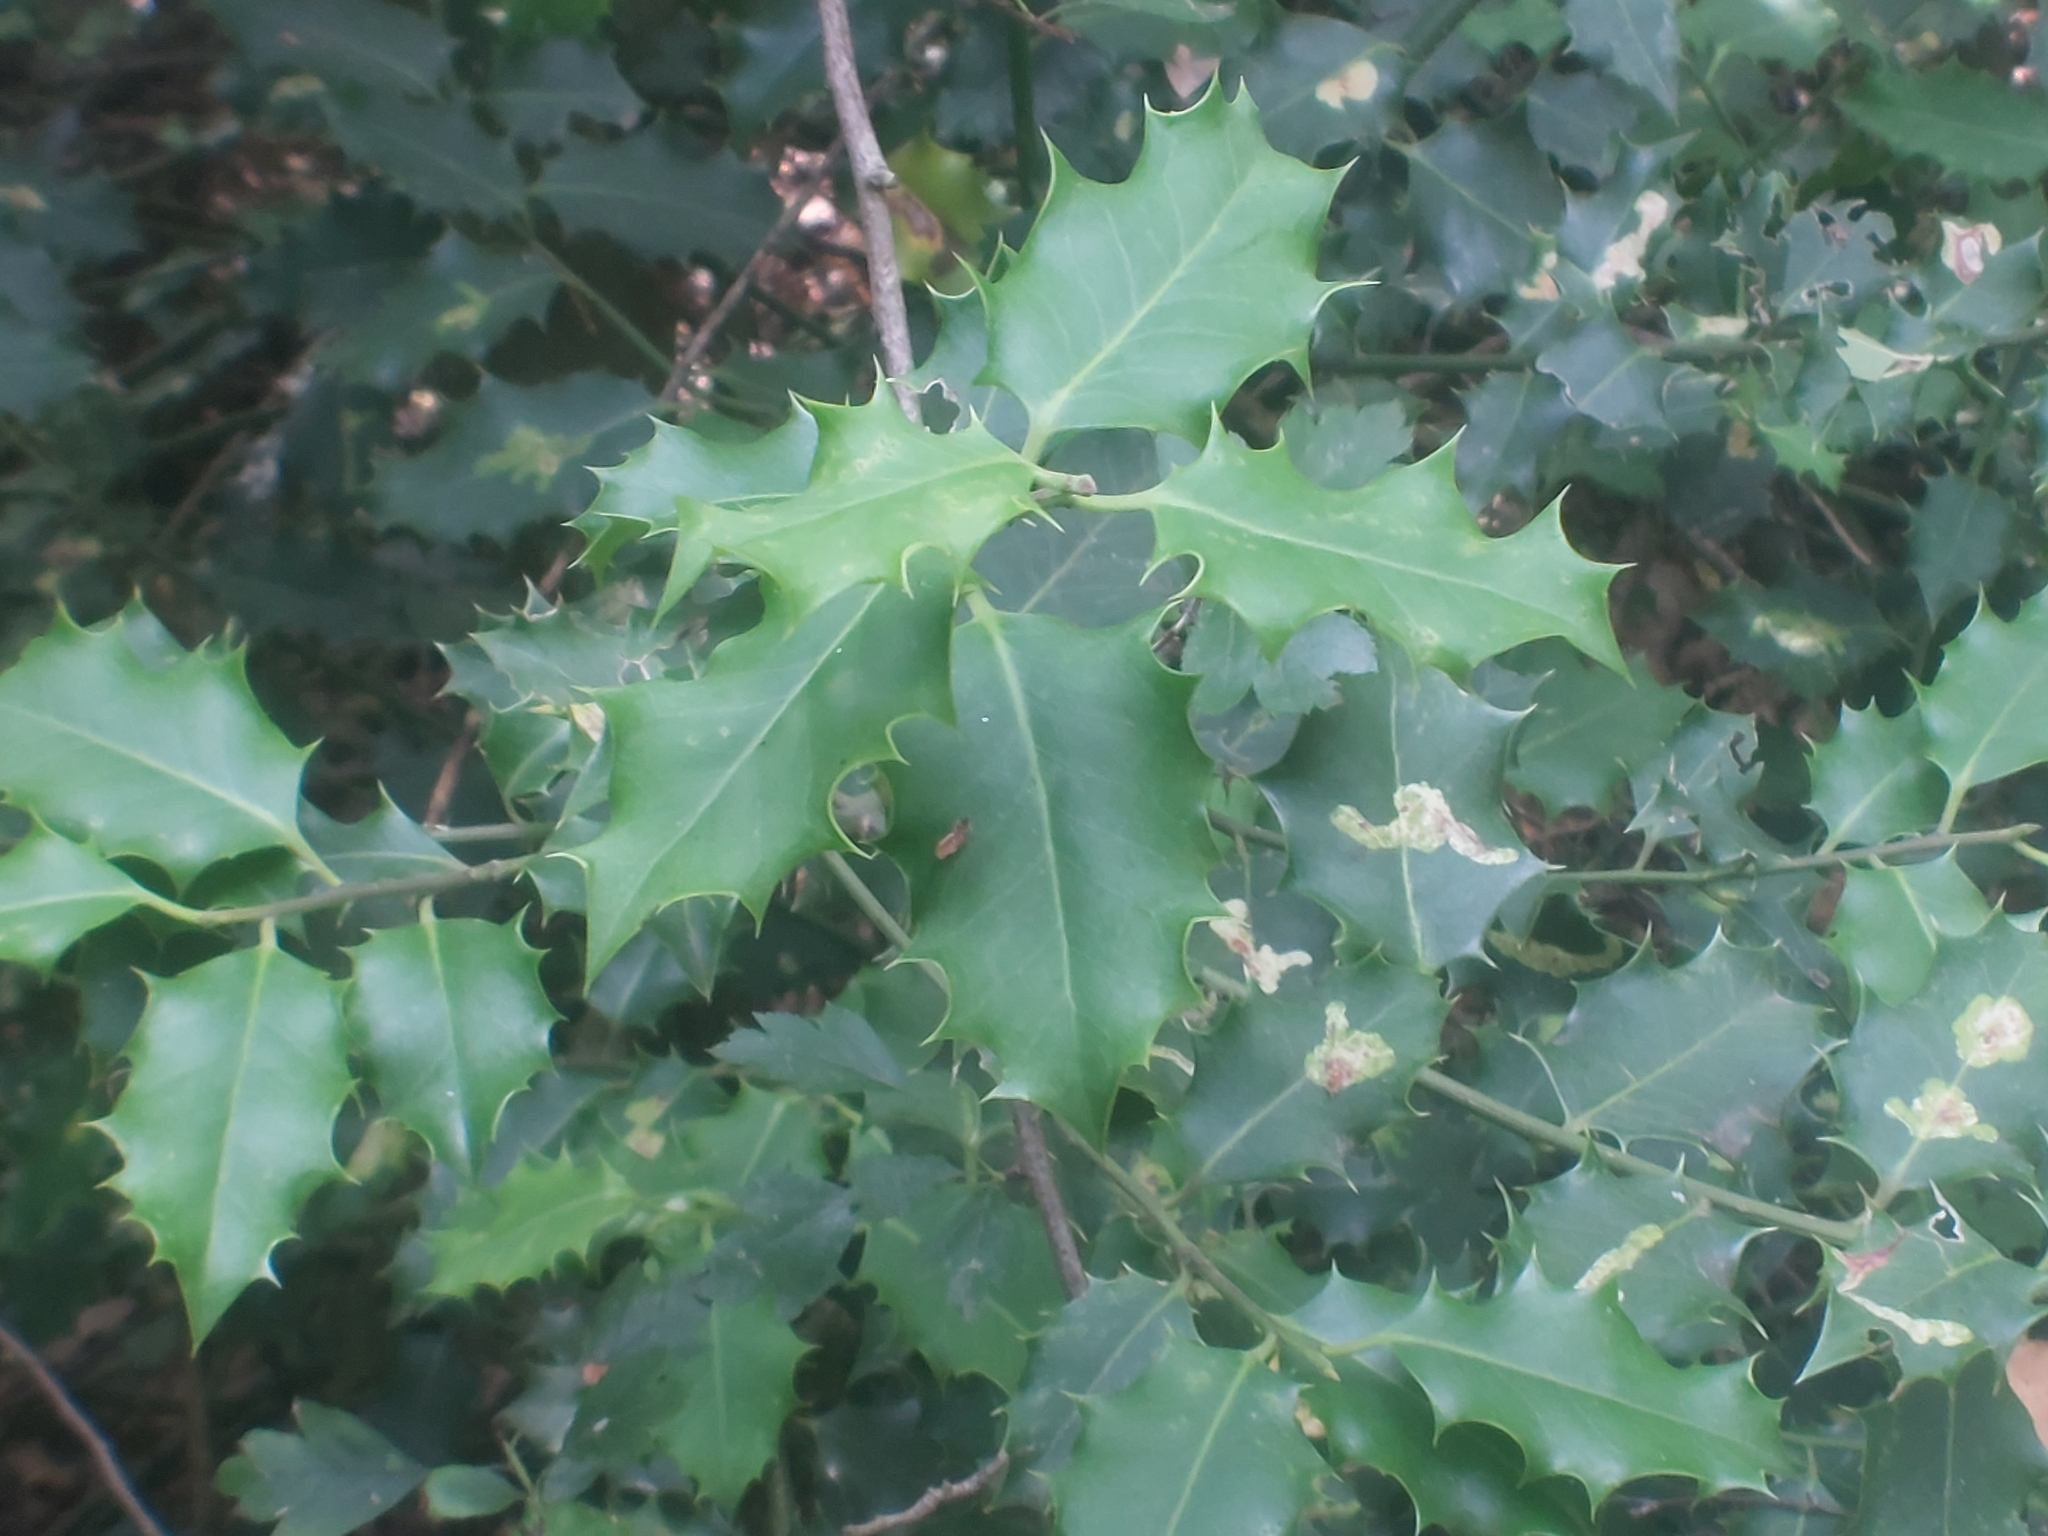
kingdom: Plantae
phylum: Tracheophyta
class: Magnoliopsida
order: Aquifoliales
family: Aquifoliaceae
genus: Ilex
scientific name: Ilex aquifolium
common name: English holly
